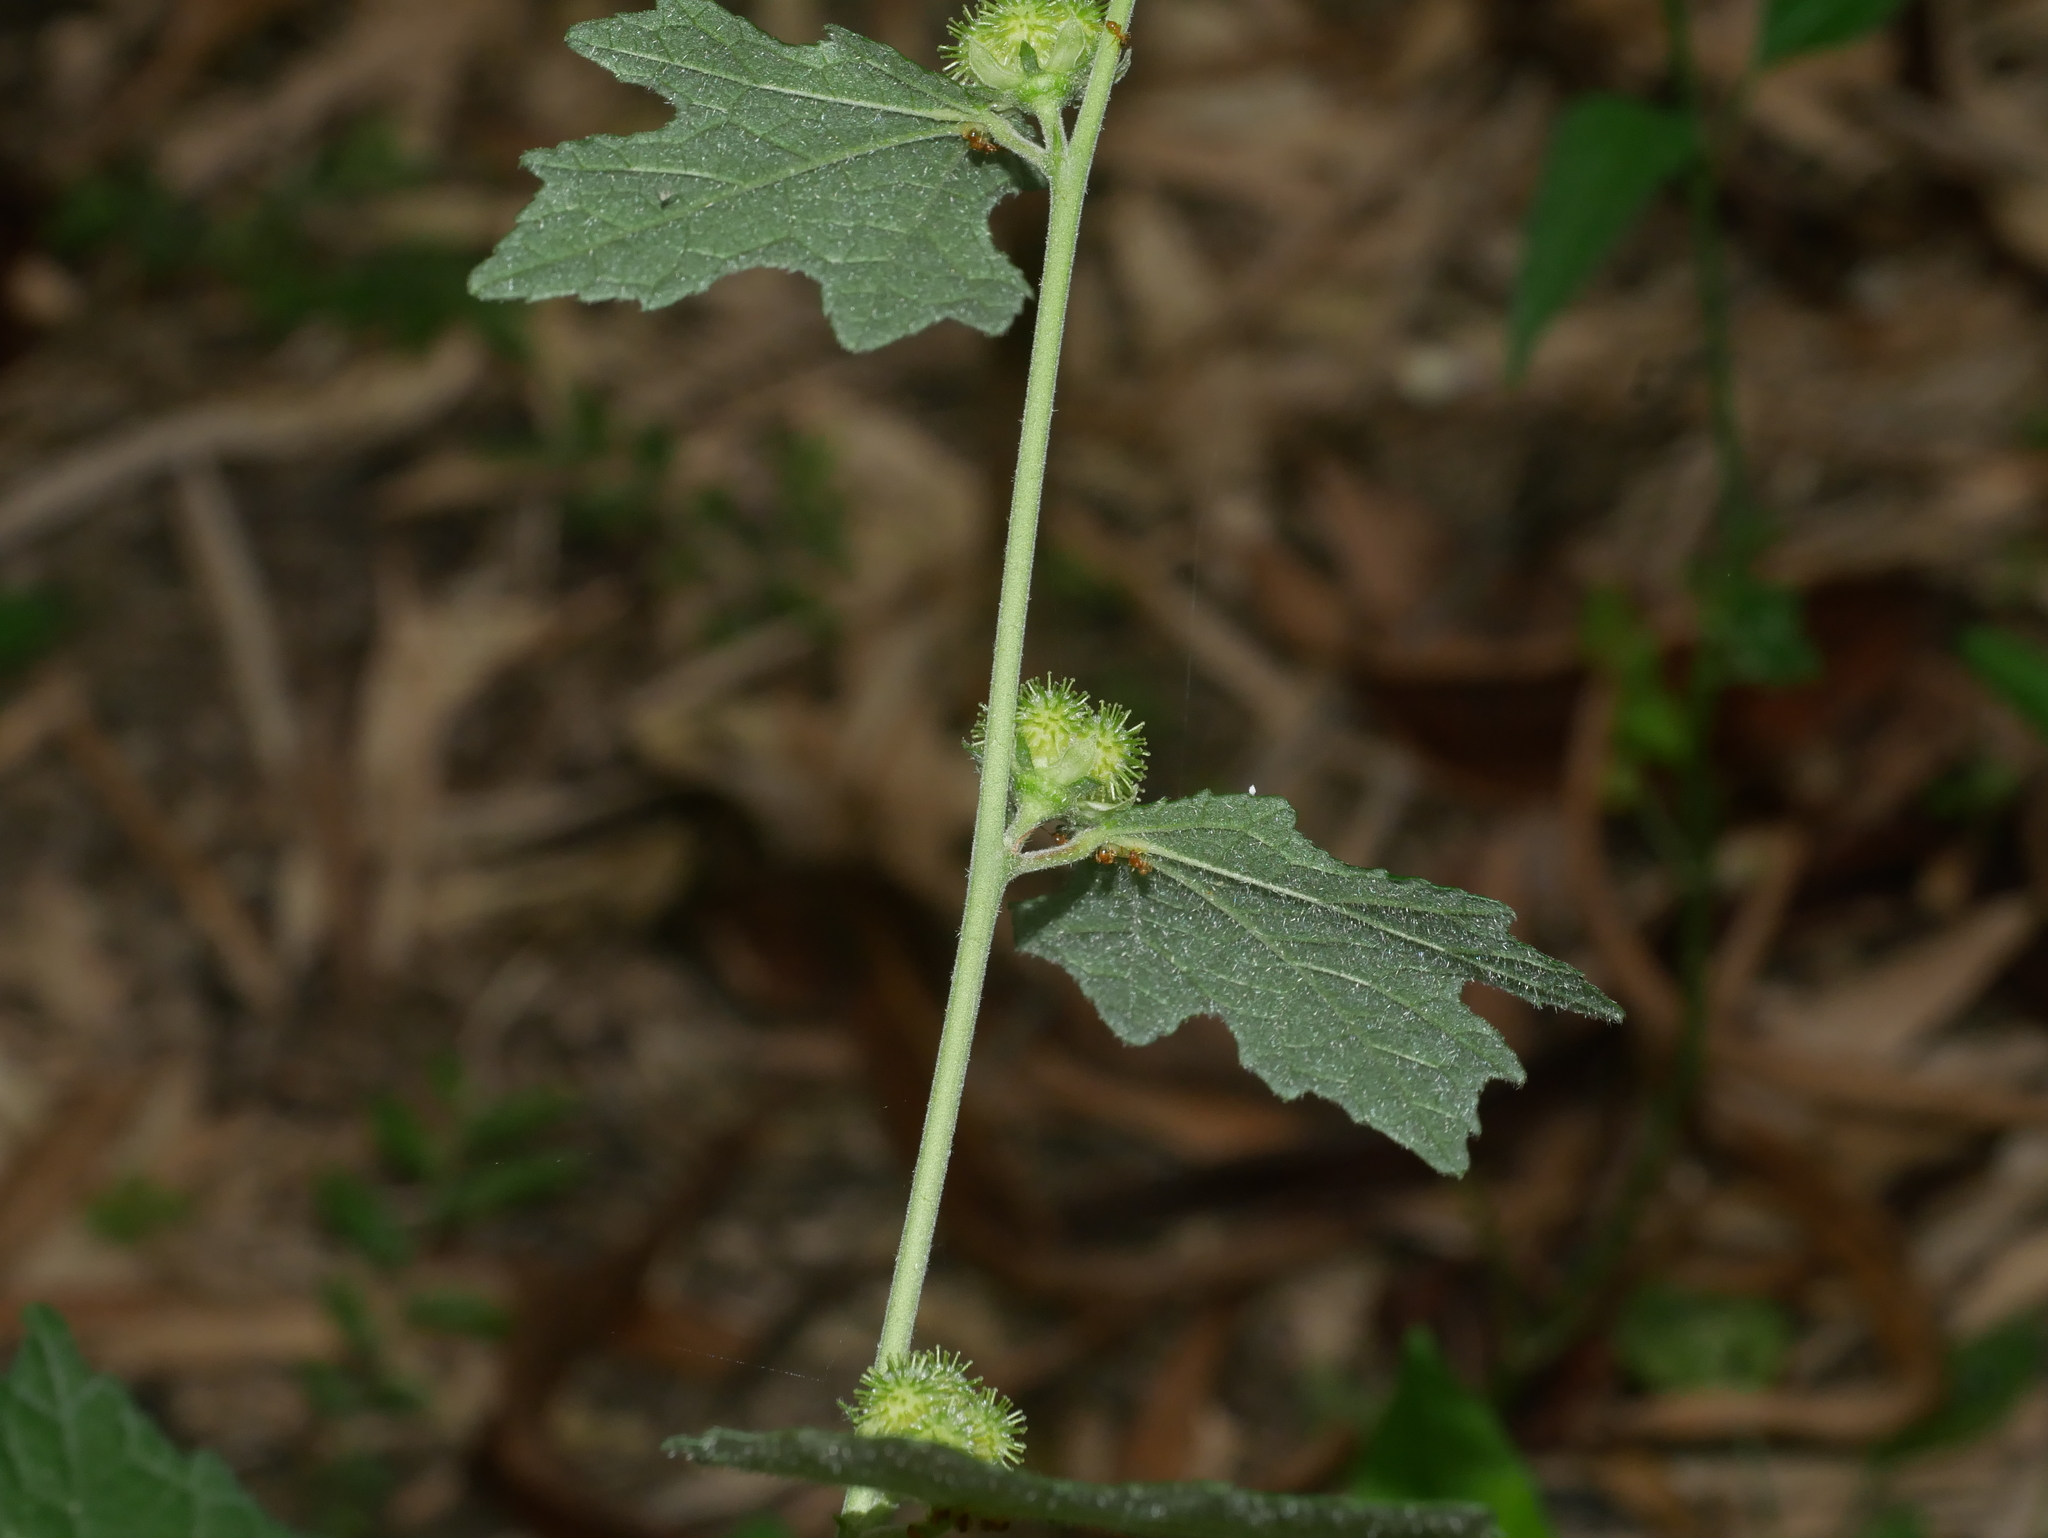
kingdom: Plantae
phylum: Tracheophyta
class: Magnoliopsida
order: Malvales
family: Malvaceae
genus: Urena
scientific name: Urena lobata
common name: Caesarweed
